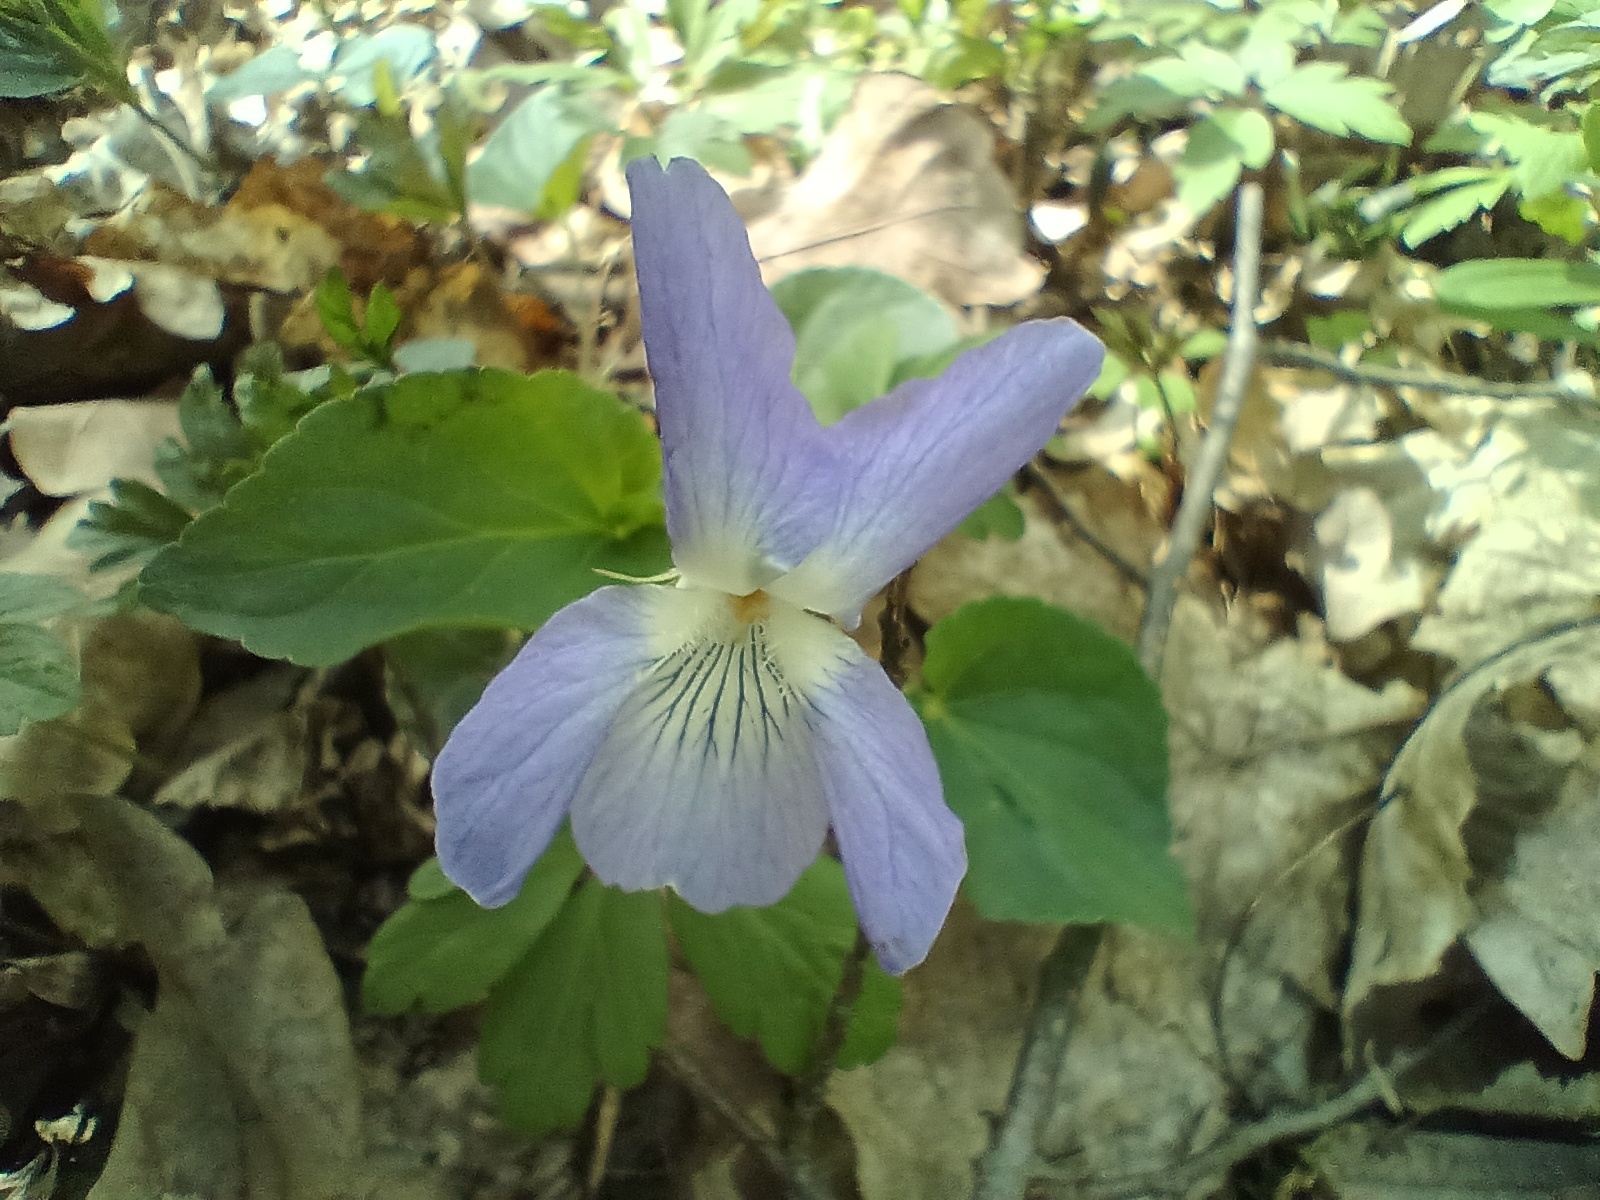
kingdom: Plantae
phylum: Tracheophyta
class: Magnoliopsida
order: Malpighiales
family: Violaceae
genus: Viola
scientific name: Viola riviniana
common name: Common dog-violet
